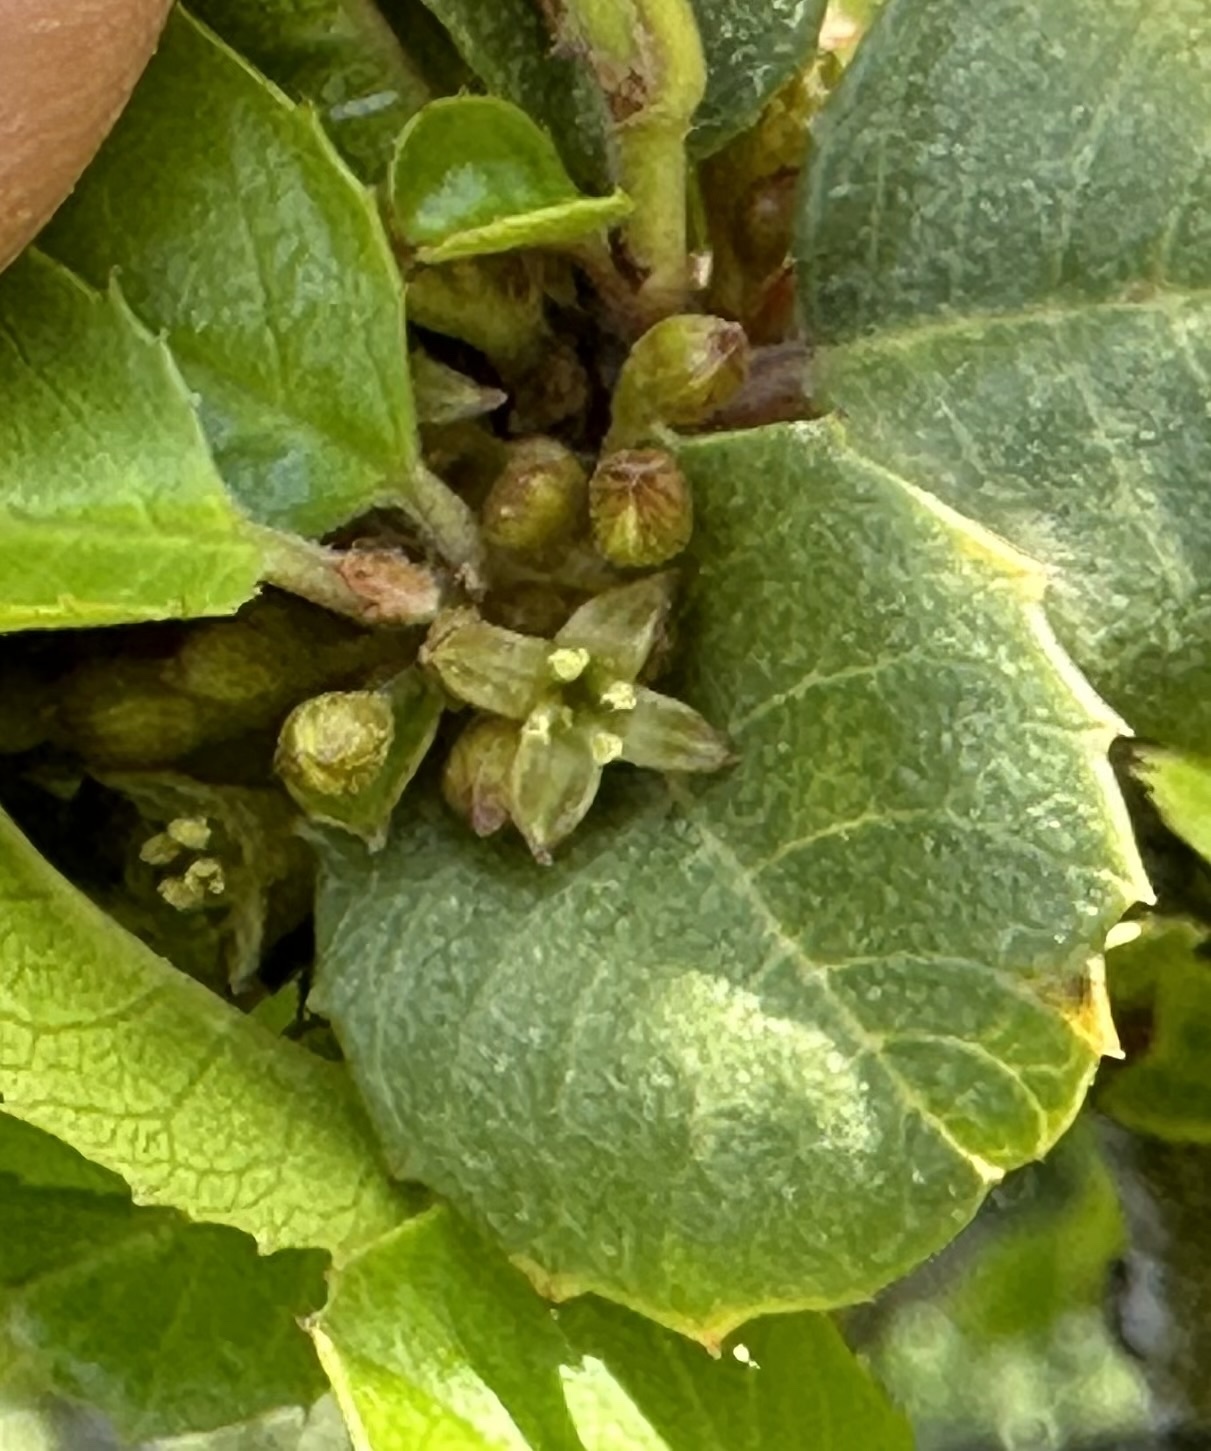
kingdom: Plantae
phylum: Tracheophyta
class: Magnoliopsida
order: Rosales
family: Rhamnaceae
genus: Endotropis
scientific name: Endotropis crocea
